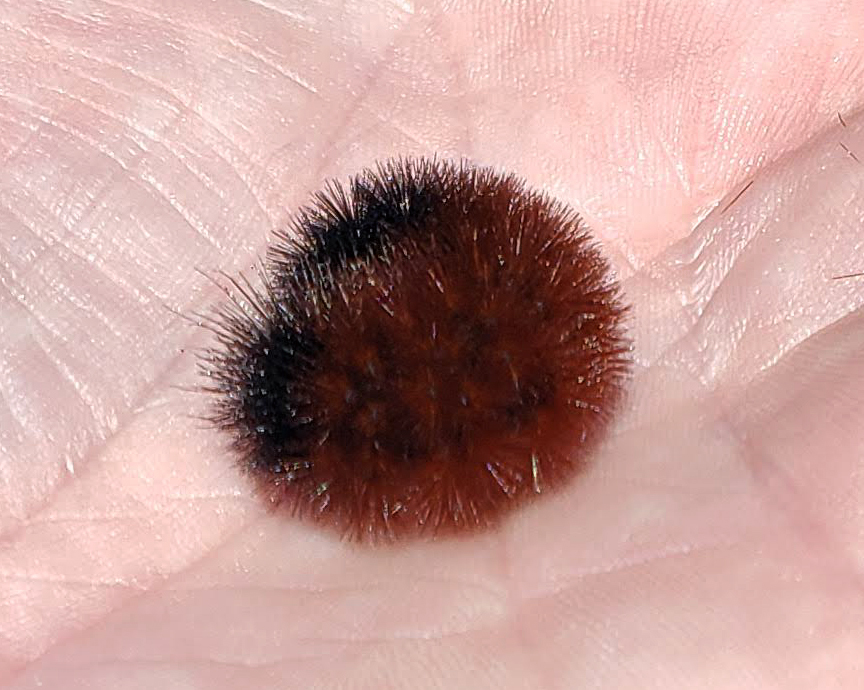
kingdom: Animalia
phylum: Arthropoda
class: Insecta
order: Lepidoptera
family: Erebidae
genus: Pyrrharctia
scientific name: Pyrrharctia isabella
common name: Isabella tiger moth
